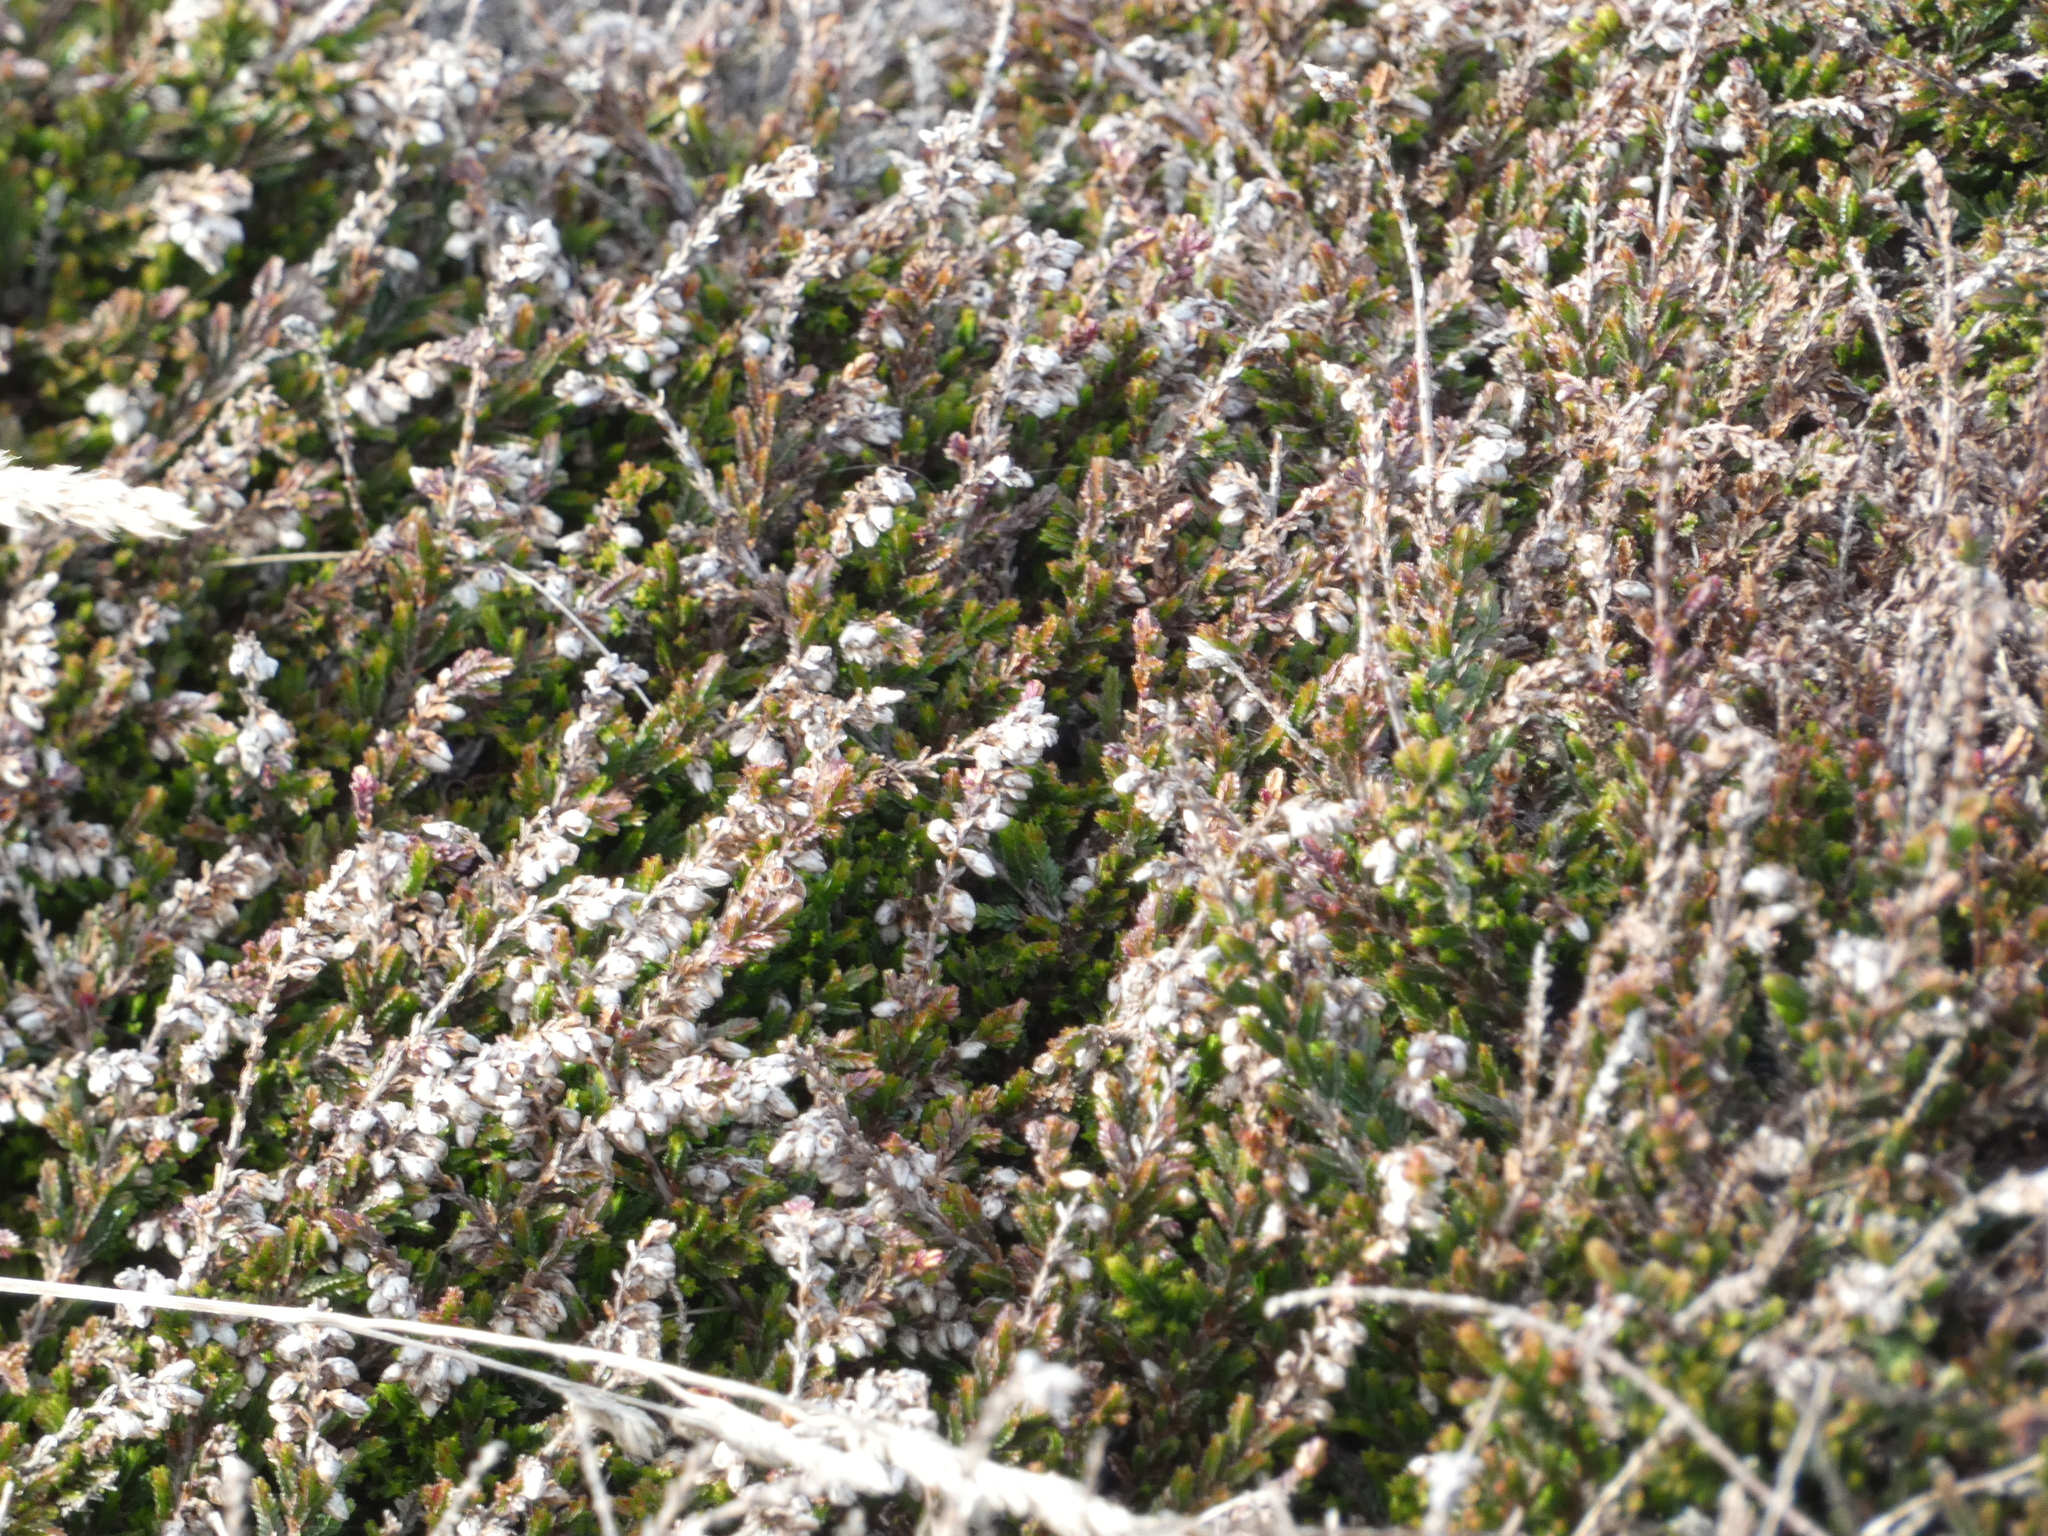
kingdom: Plantae
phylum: Tracheophyta
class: Magnoliopsida
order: Ericales
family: Ericaceae
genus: Calluna
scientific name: Calluna vulgaris
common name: Heather
